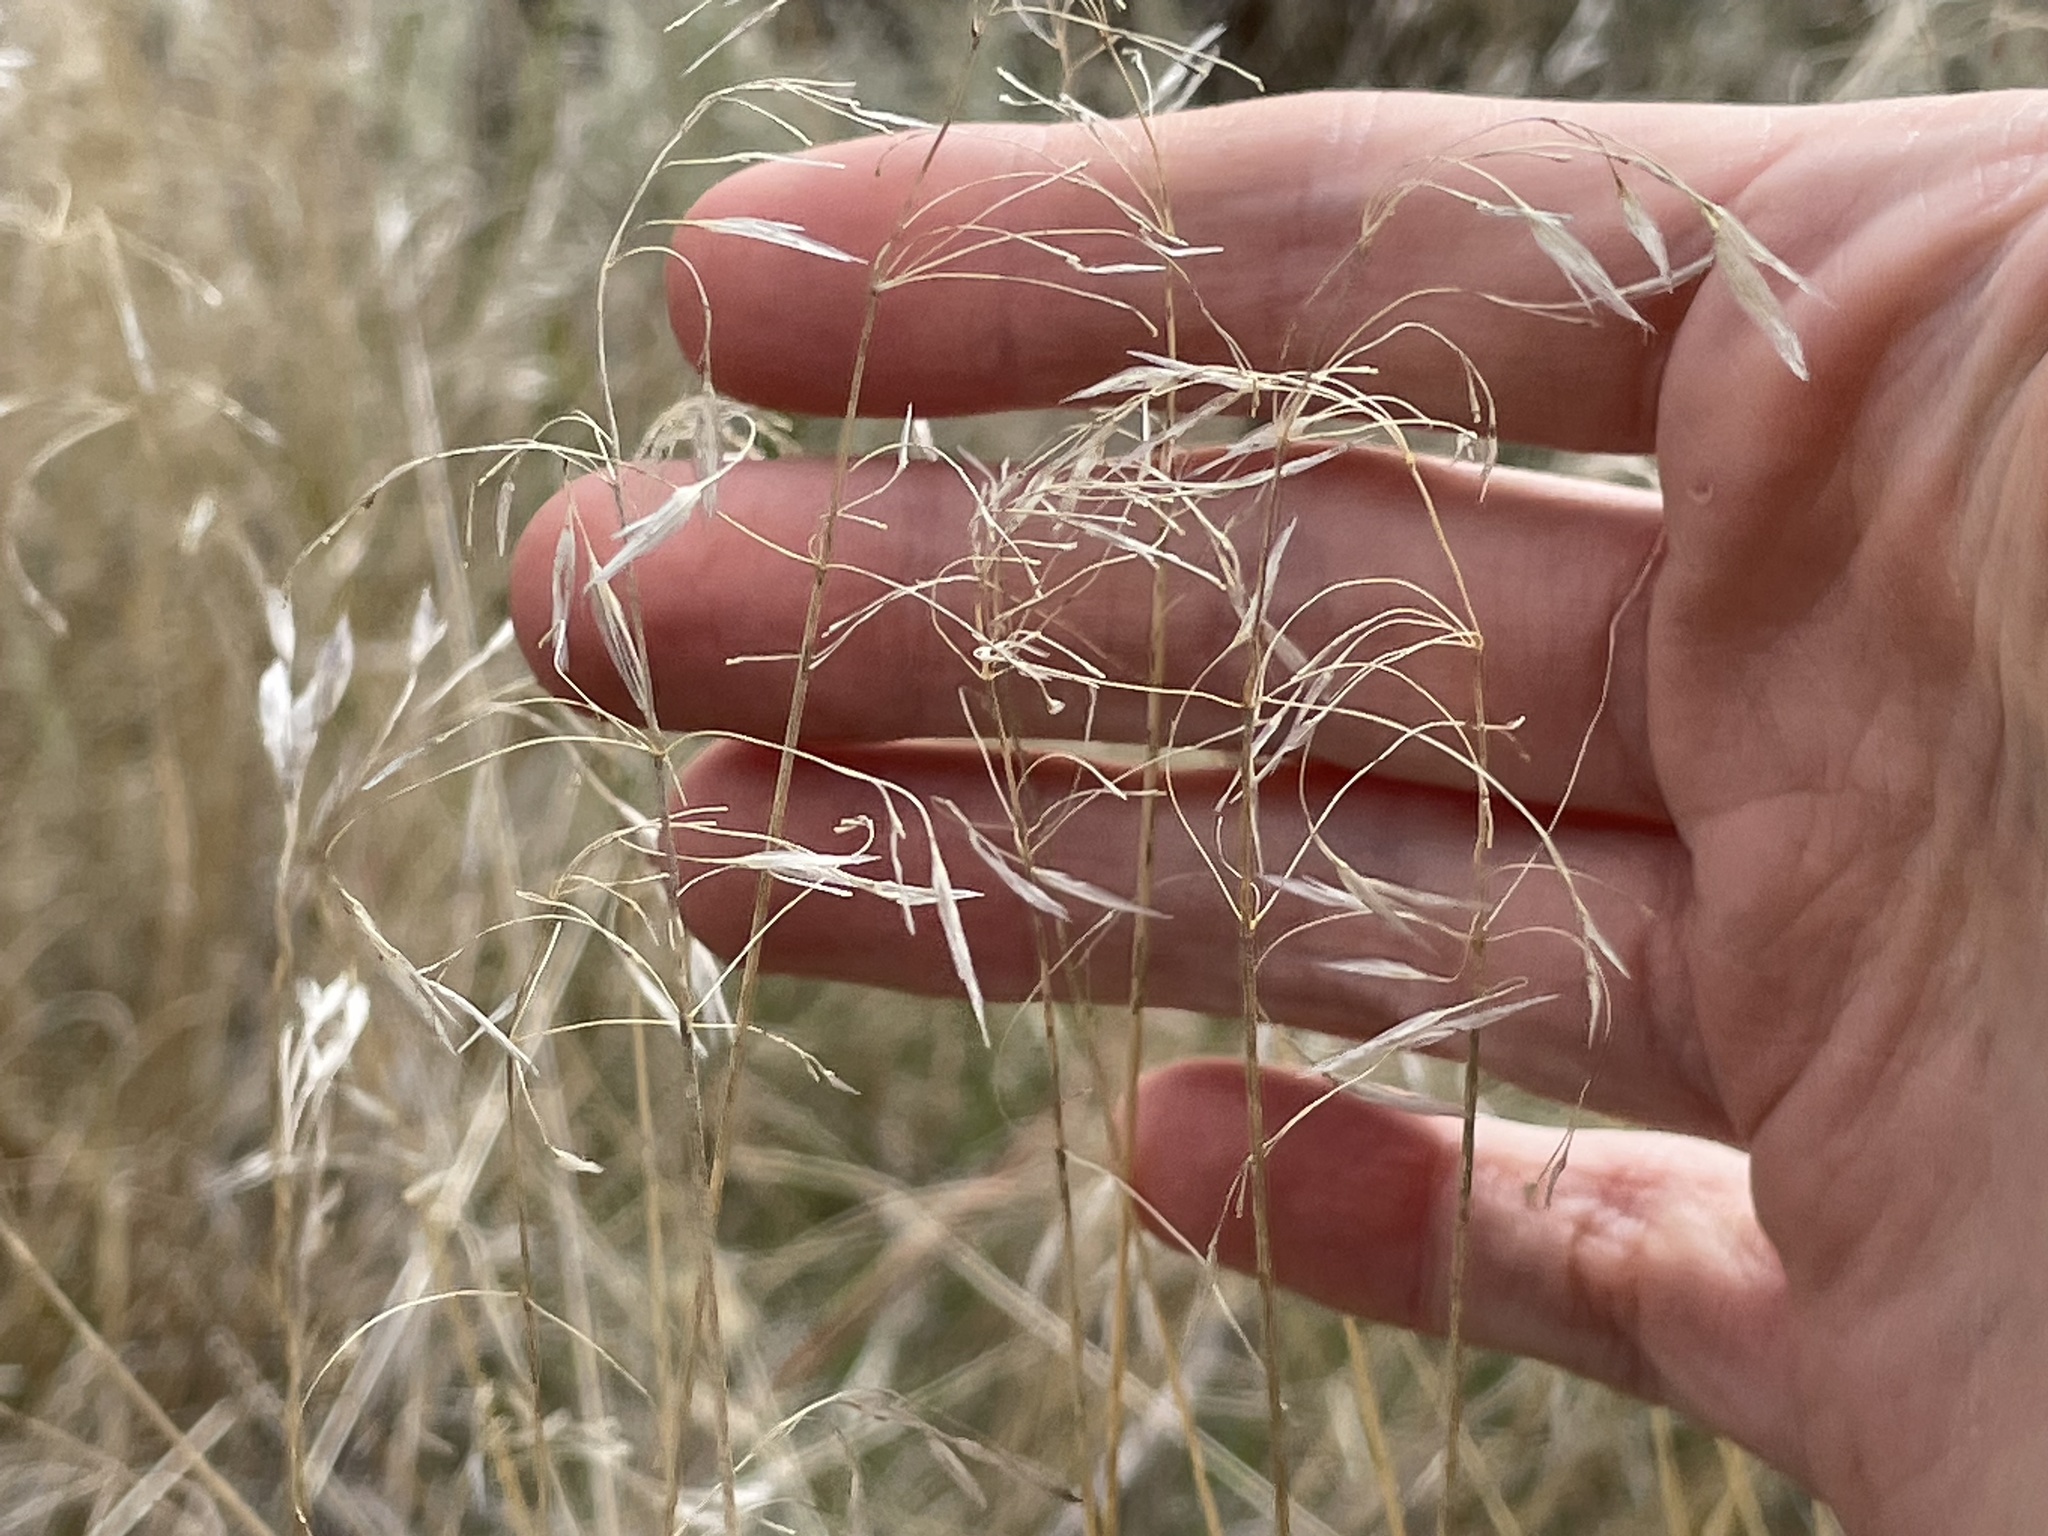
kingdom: Plantae
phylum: Tracheophyta
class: Liliopsida
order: Poales
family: Poaceae
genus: Bromus
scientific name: Bromus tectorum
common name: Cheatgrass
